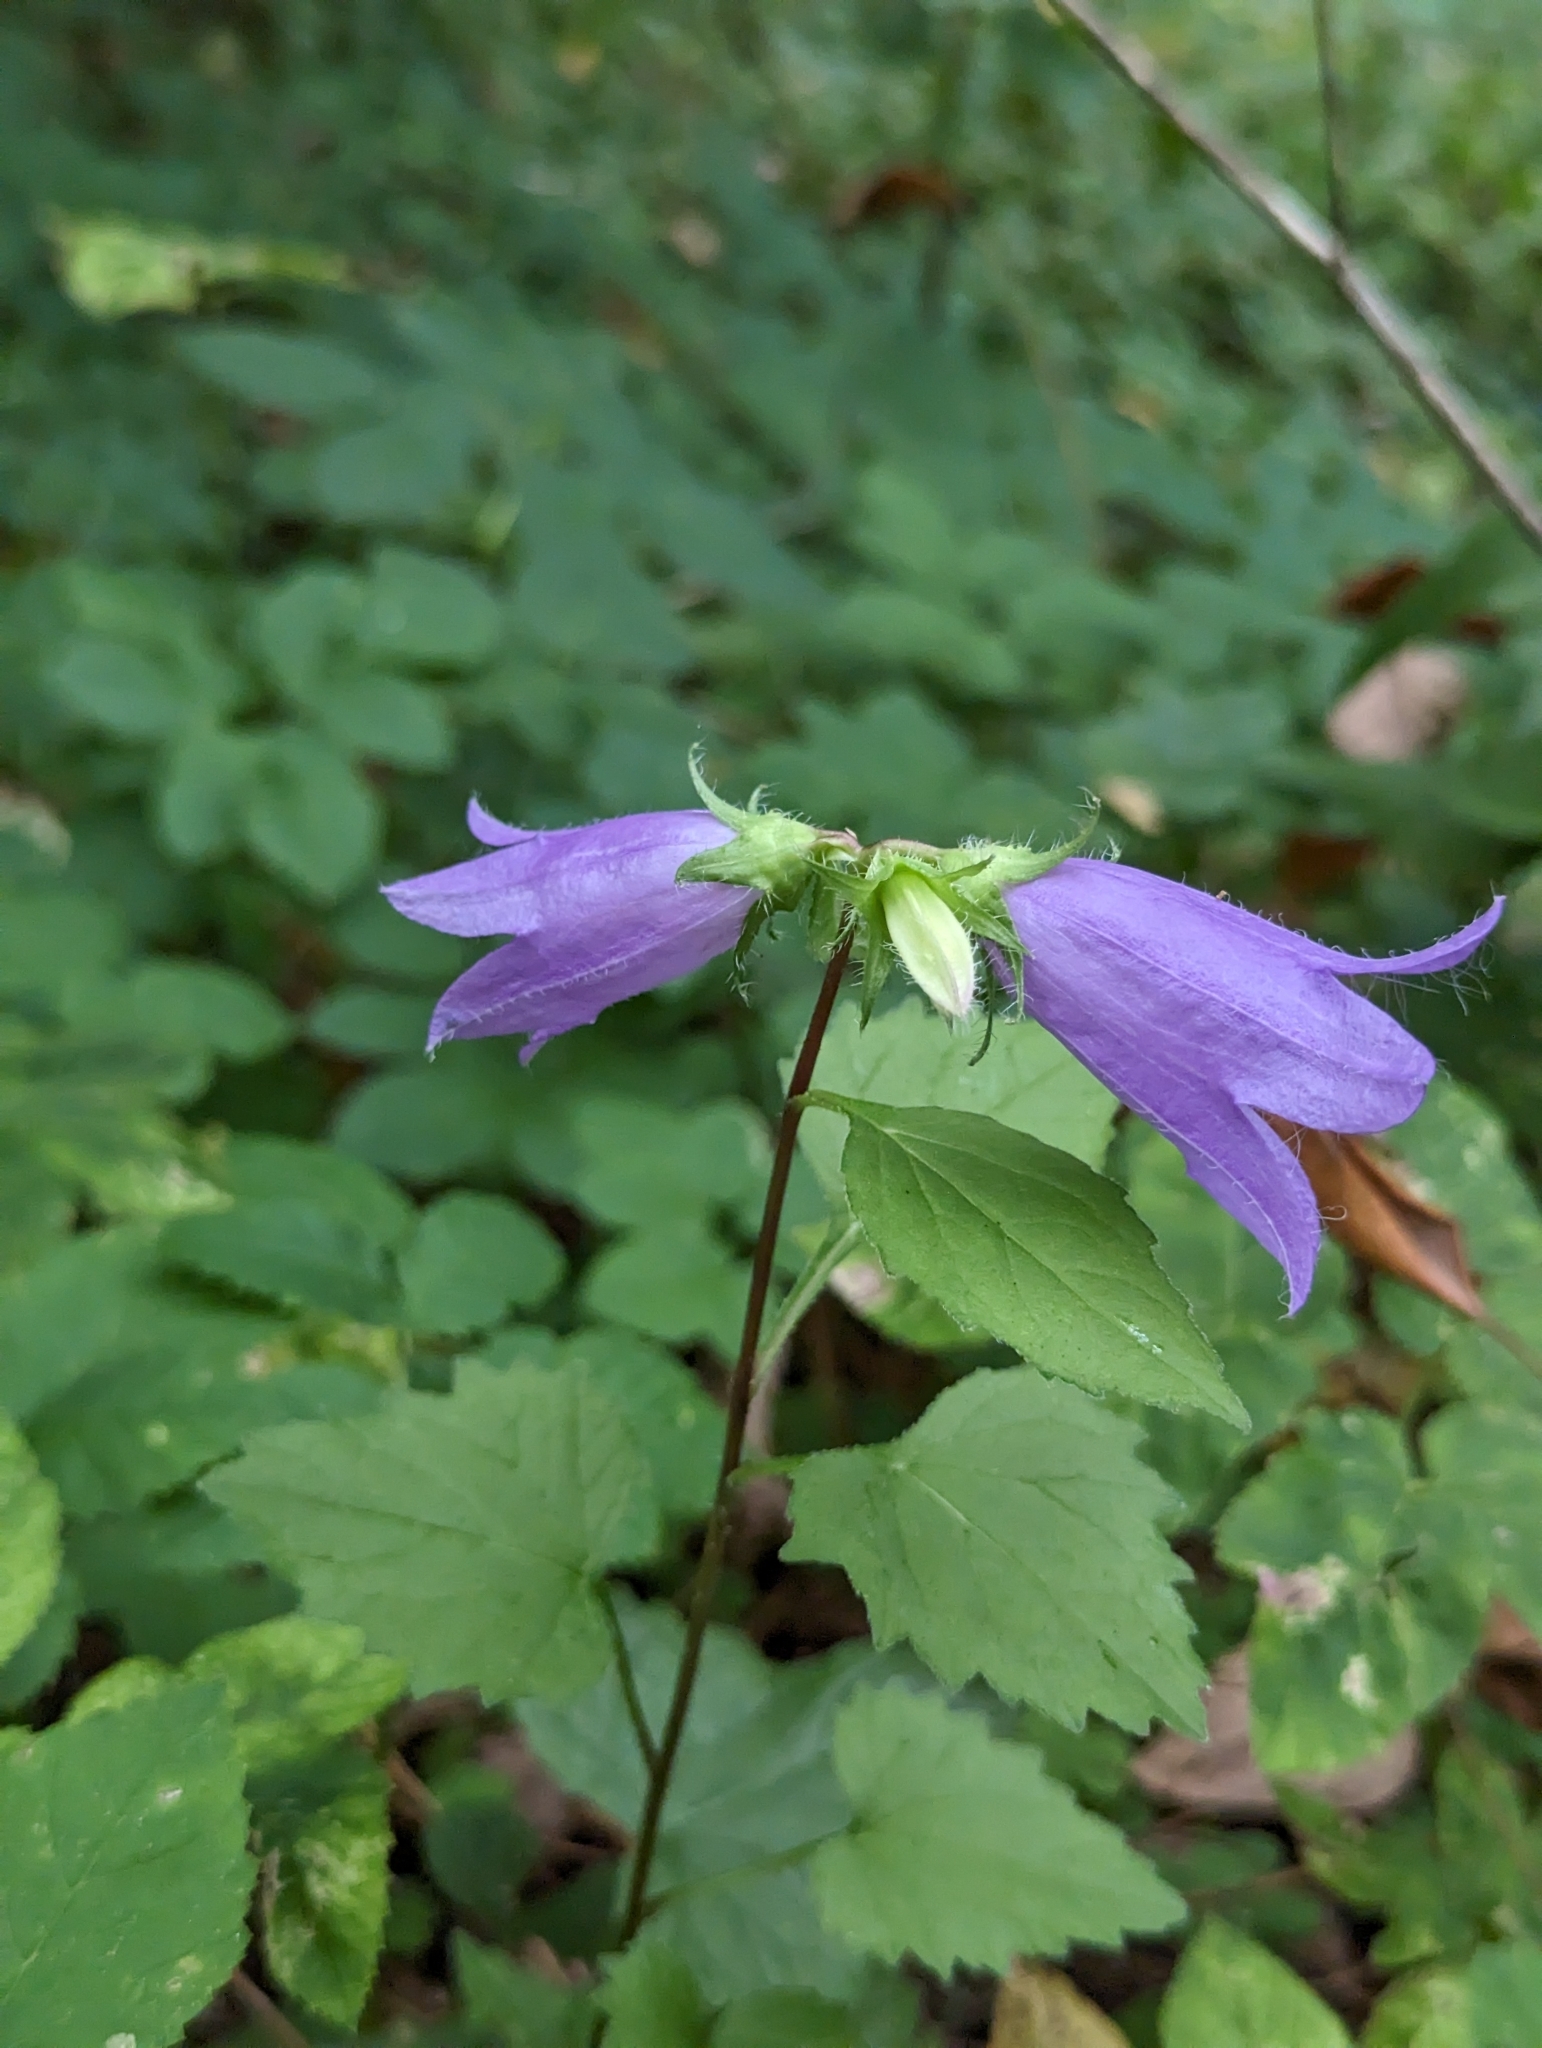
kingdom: Plantae
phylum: Tracheophyta
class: Magnoliopsida
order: Asterales
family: Campanulaceae
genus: Campanula
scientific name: Campanula trachelium
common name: Nettle-leaved bellflower
